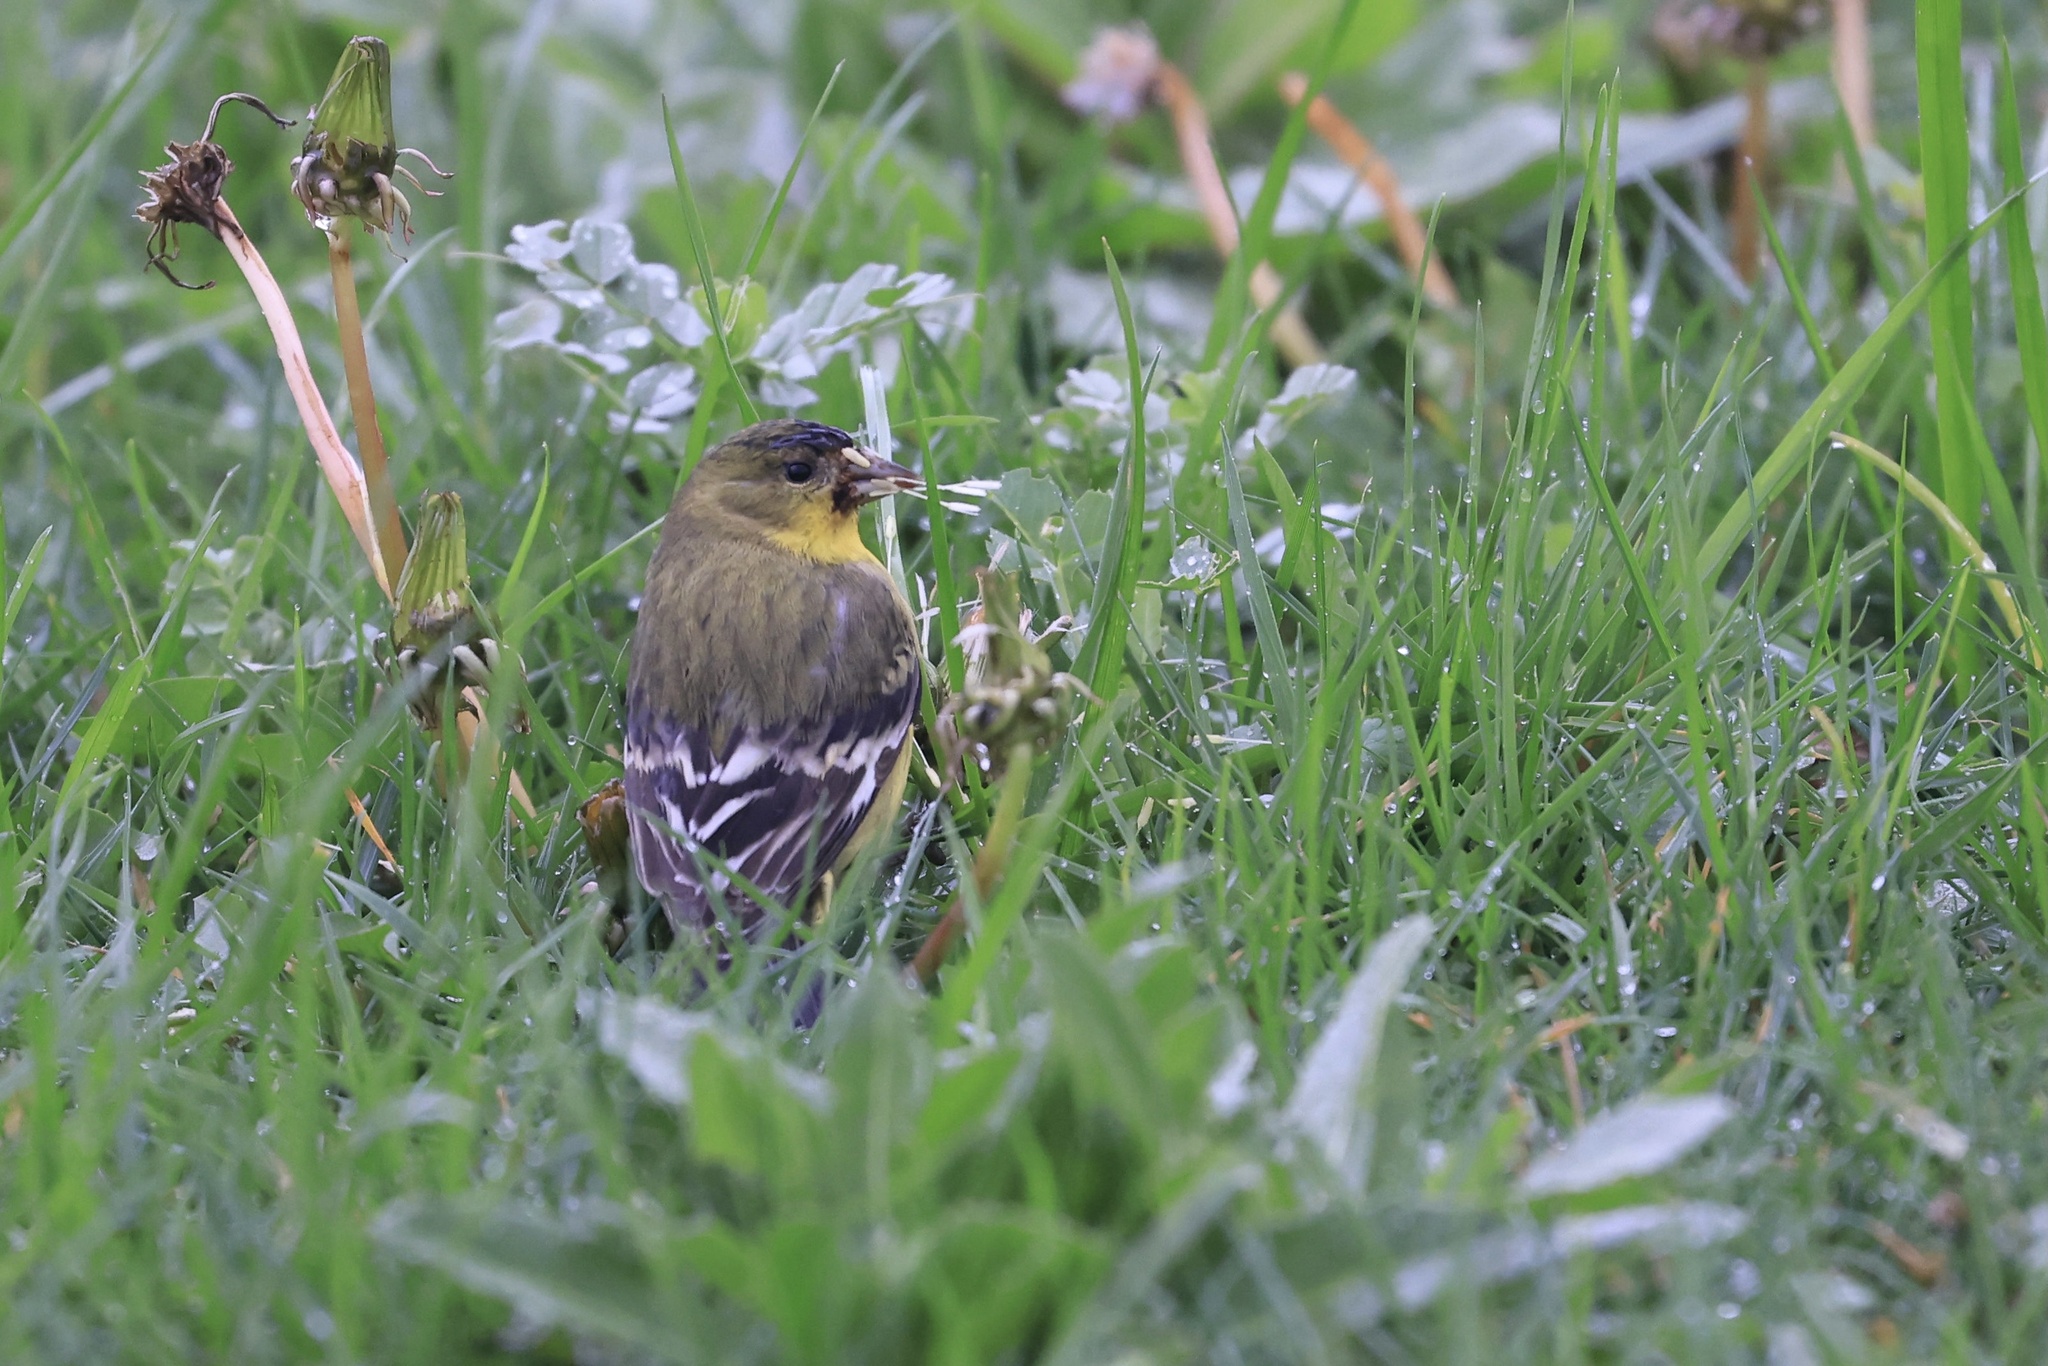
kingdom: Animalia
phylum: Chordata
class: Aves
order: Passeriformes
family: Fringillidae
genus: Spinus
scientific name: Spinus psaltria
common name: Lesser goldfinch
